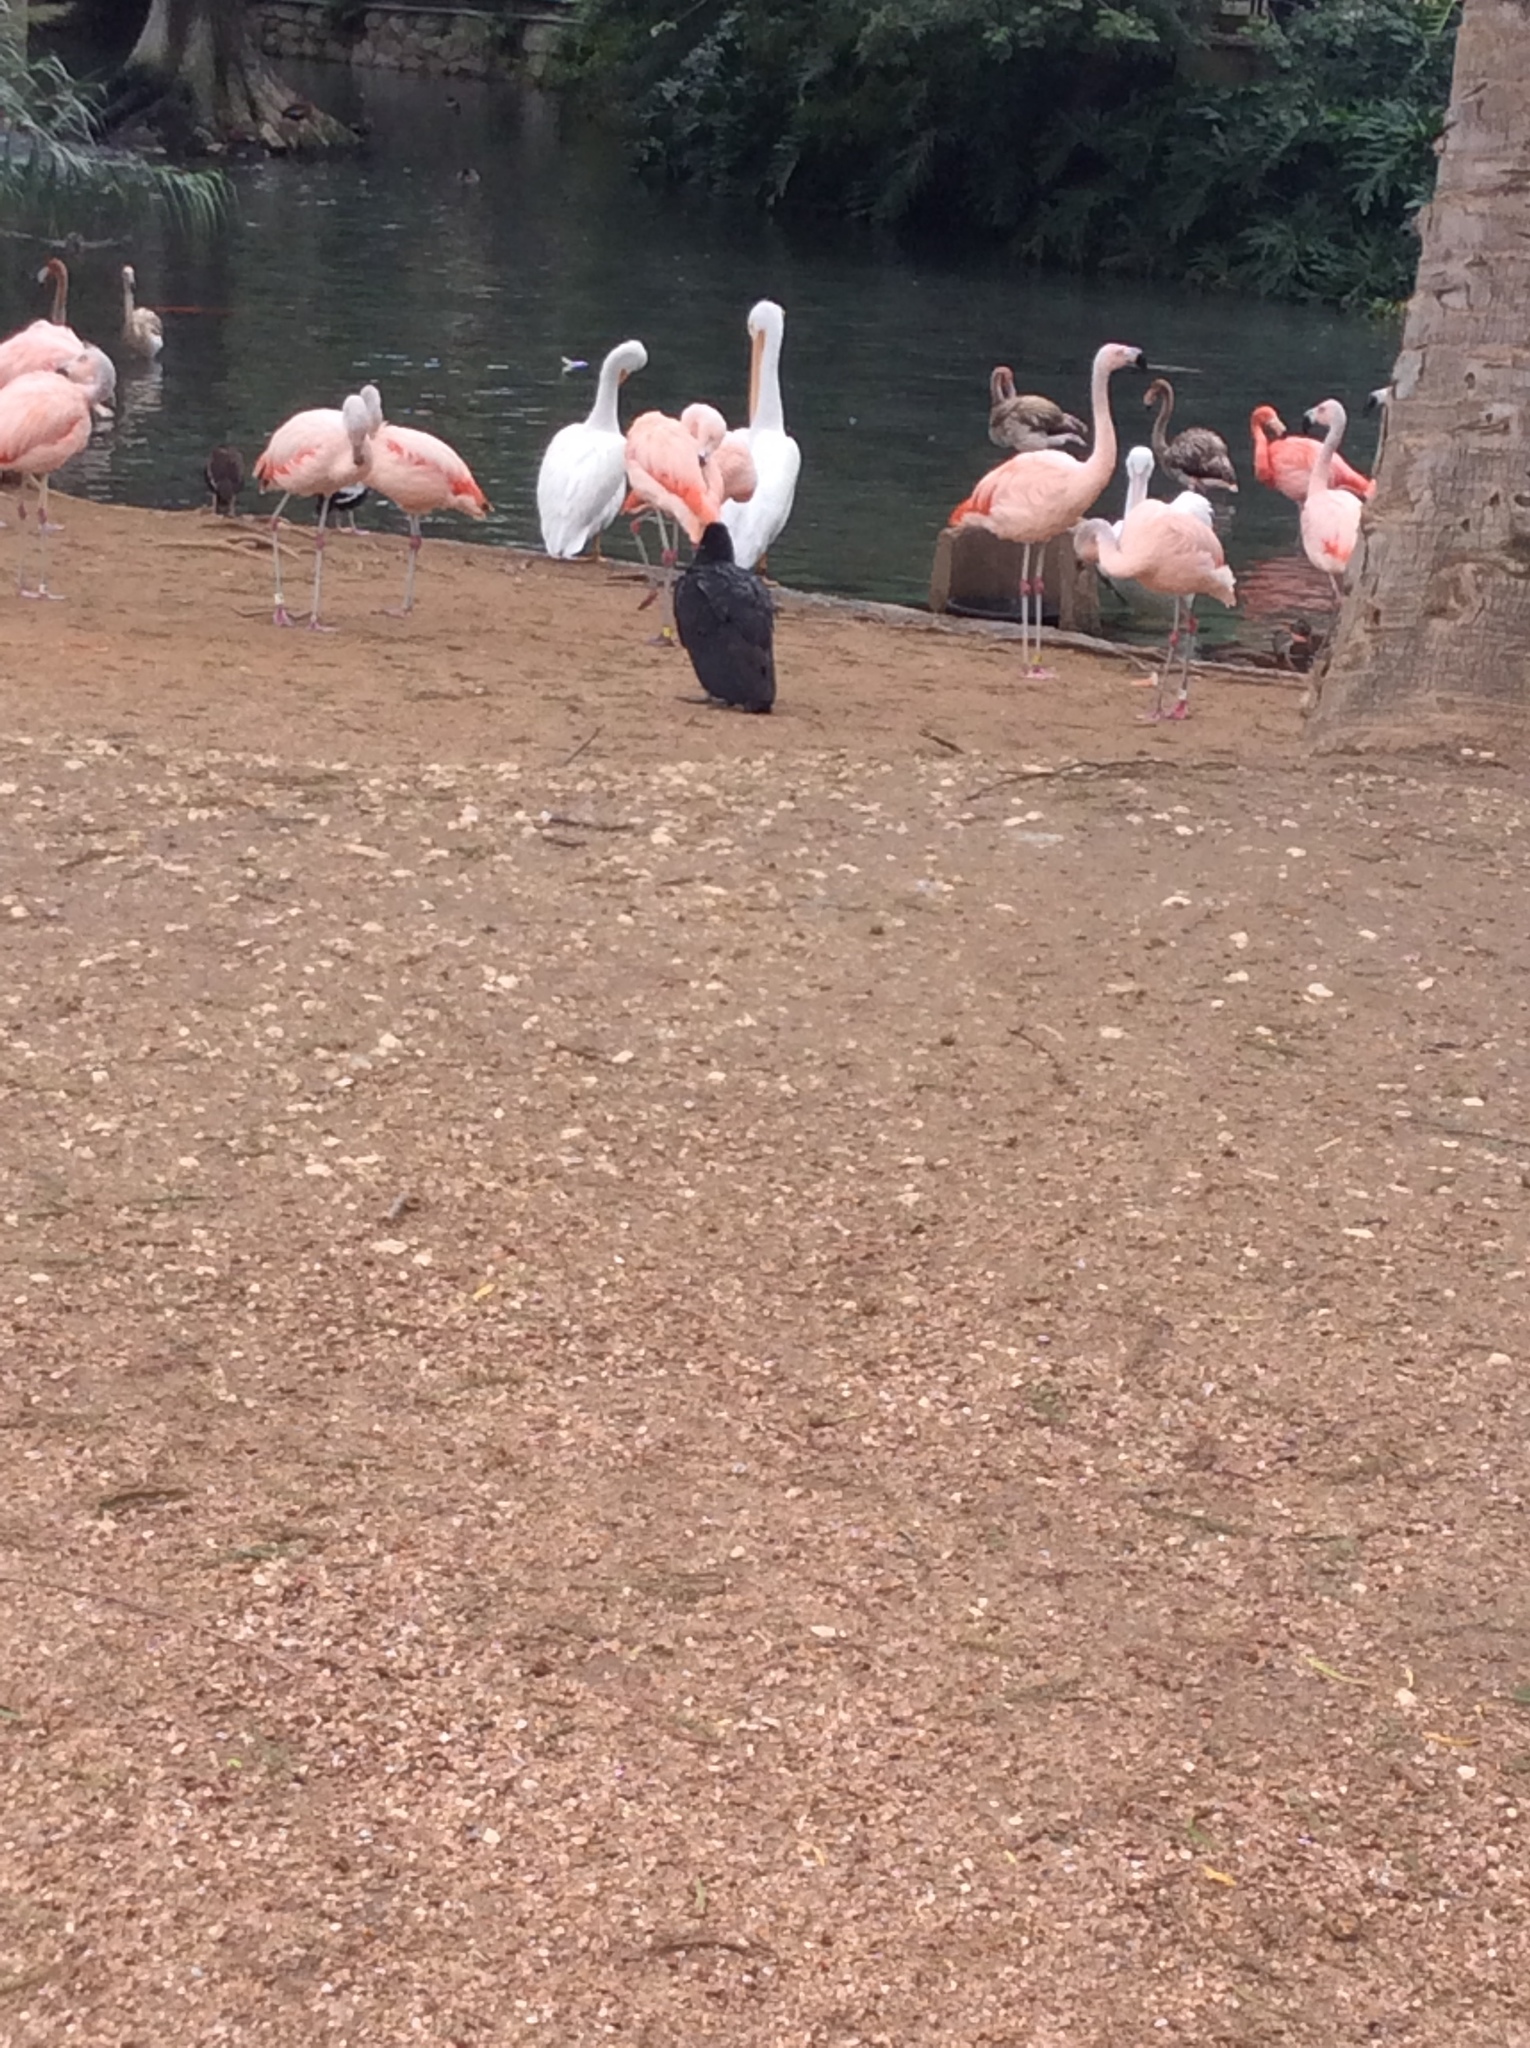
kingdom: Animalia
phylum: Chordata
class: Aves
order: Accipitriformes
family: Cathartidae
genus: Coragyps
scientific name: Coragyps atratus
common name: Black vulture
